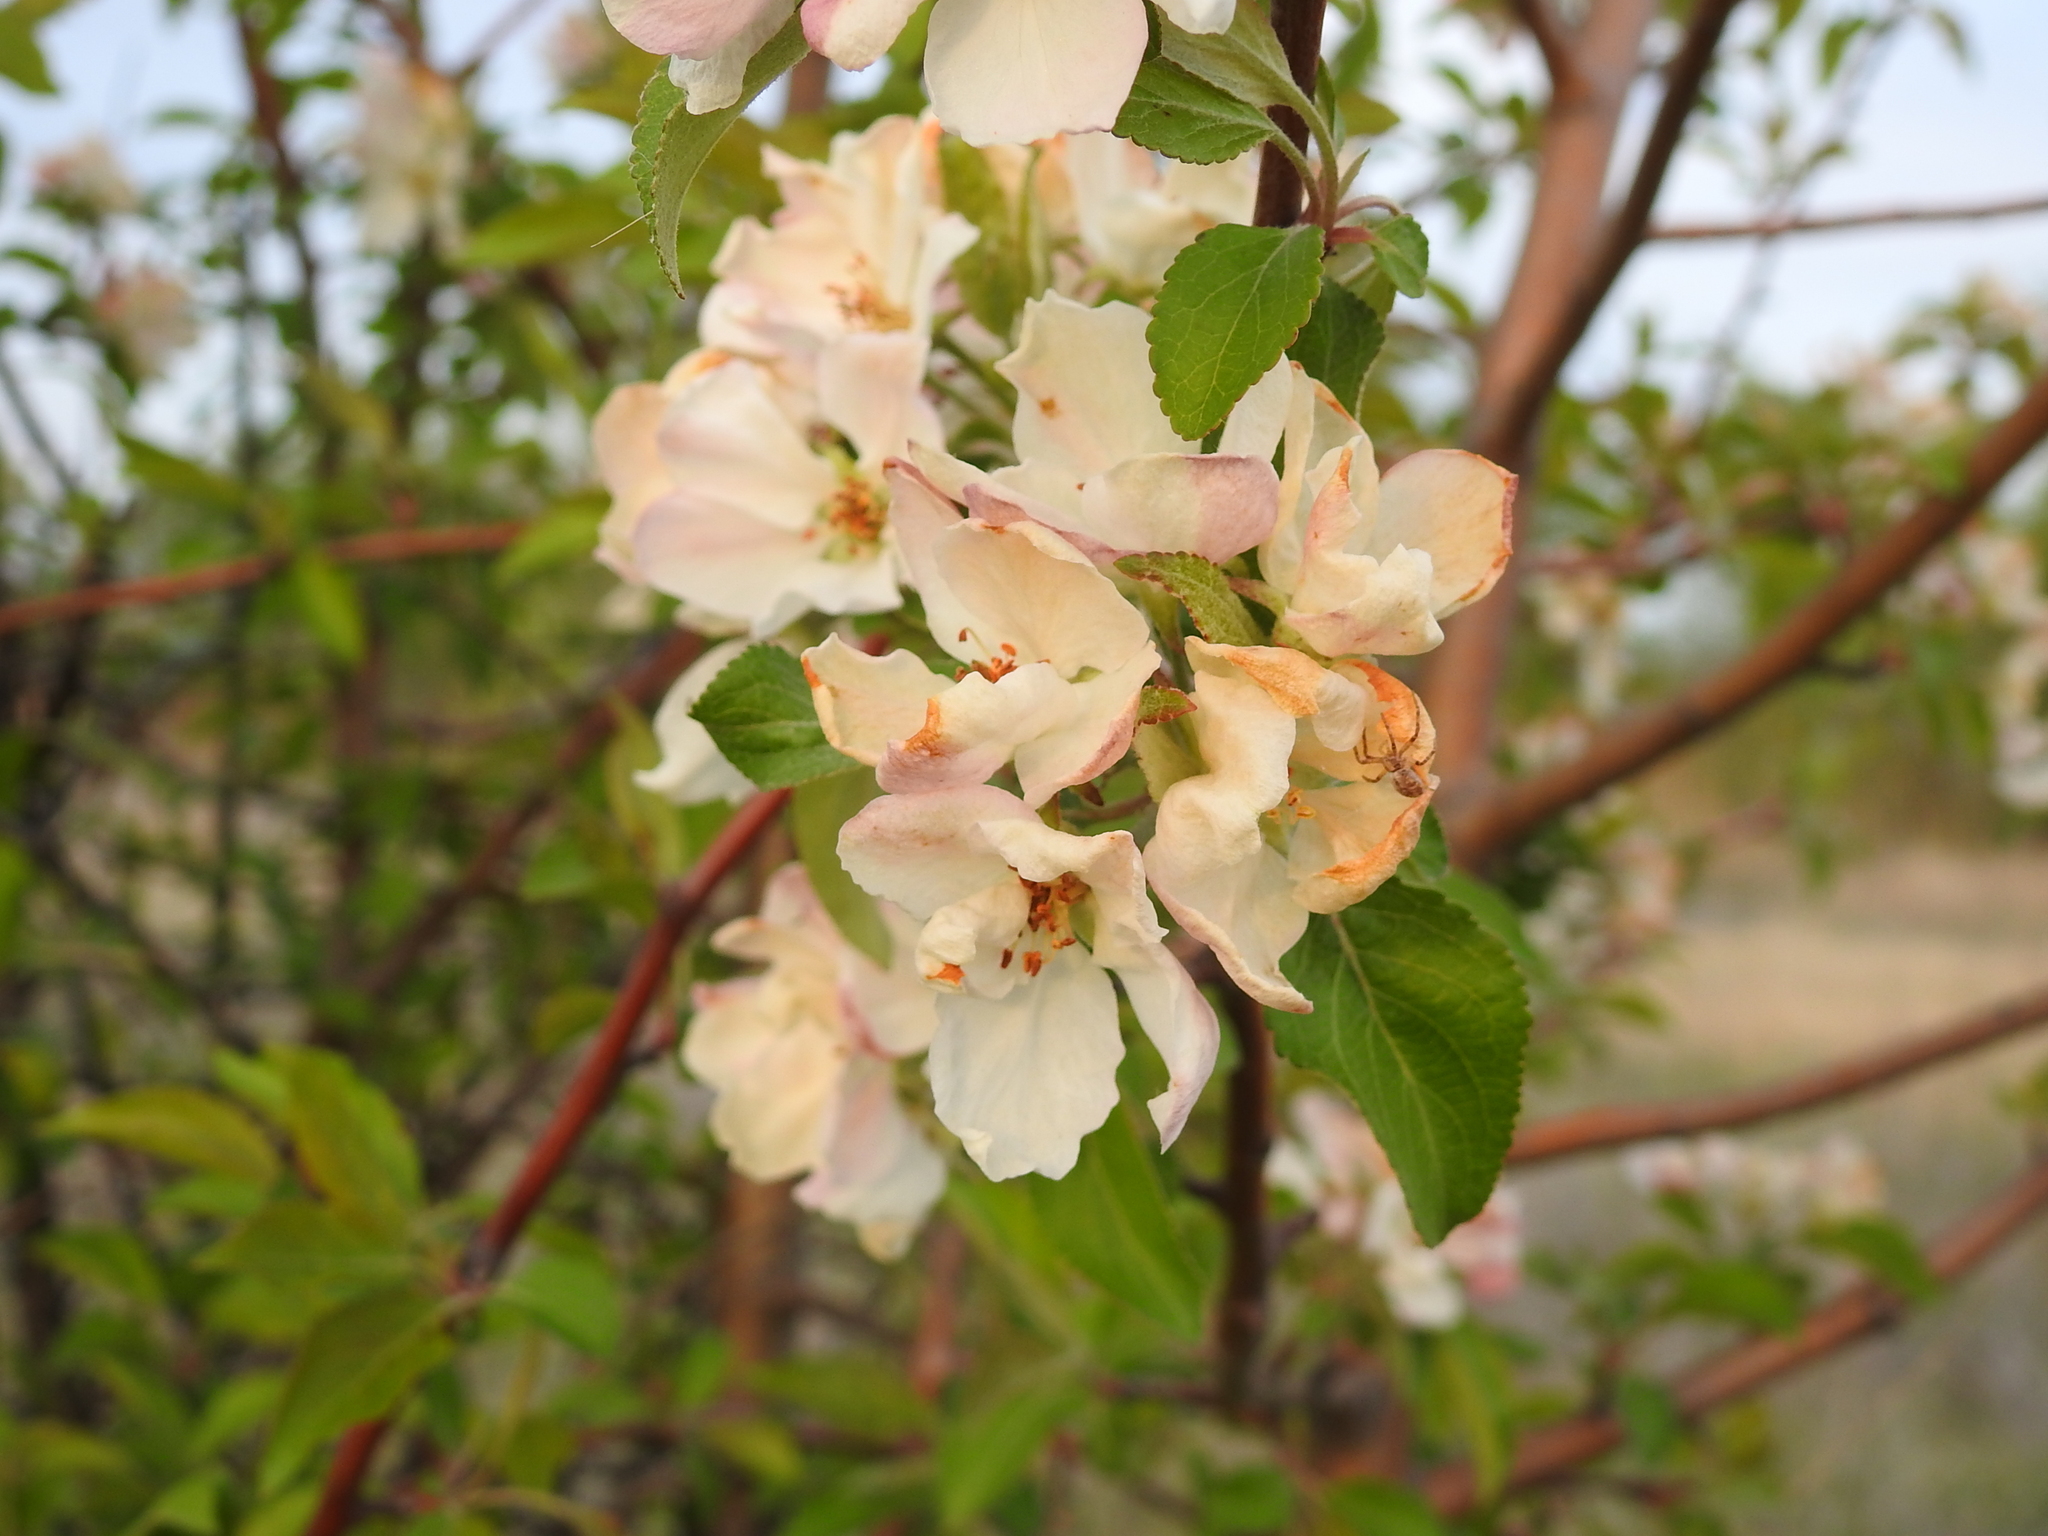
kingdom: Plantae
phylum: Tracheophyta
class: Magnoliopsida
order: Rosales
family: Rosaceae
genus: Malus
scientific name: Malus domestica
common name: Apple
